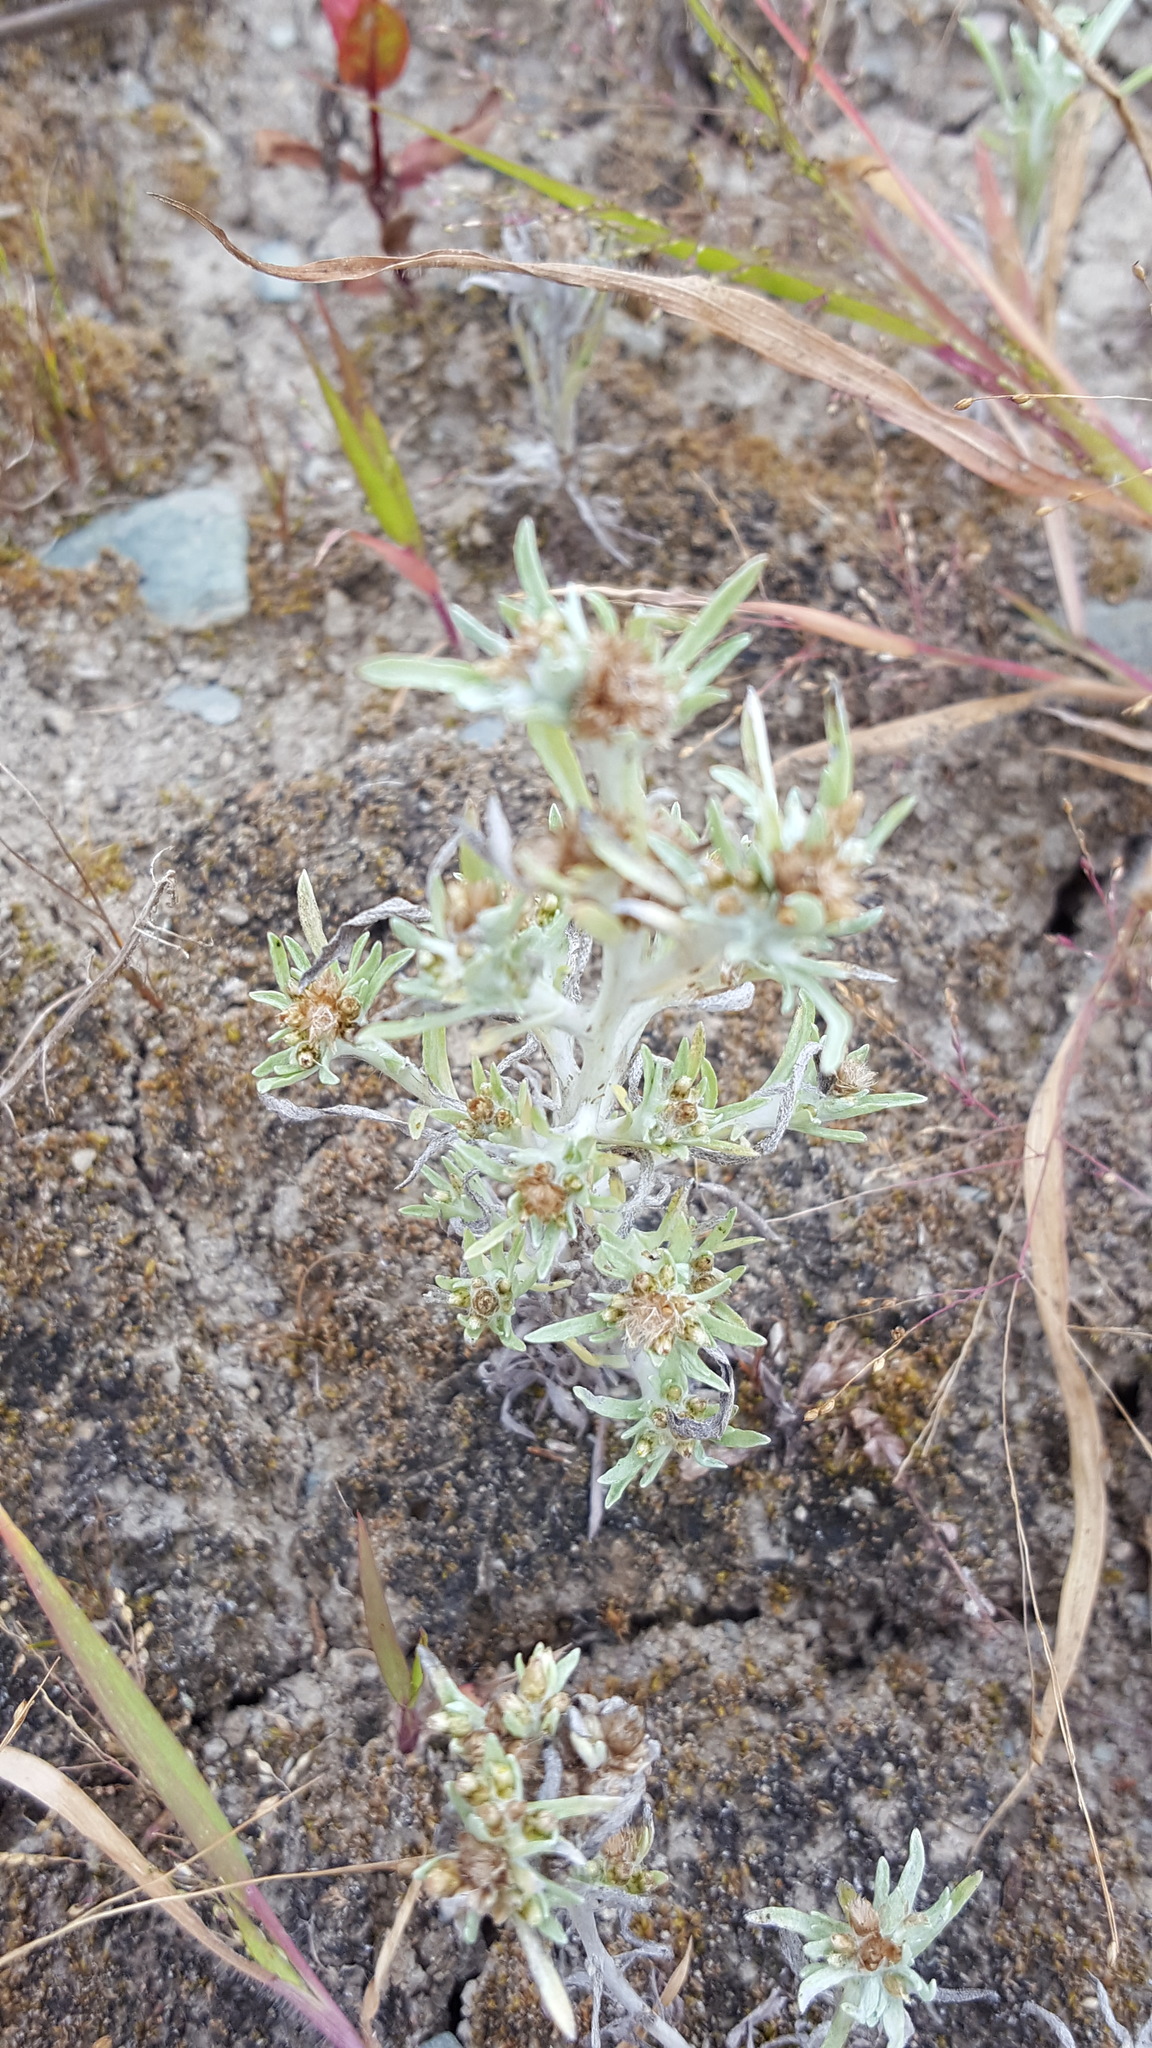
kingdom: Plantae
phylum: Tracheophyta
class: Magnoliopsida
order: Asterales
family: Asteraceae
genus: Gnaphalium
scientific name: Gnaphalium uliginosum
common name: Marsh cudweed
